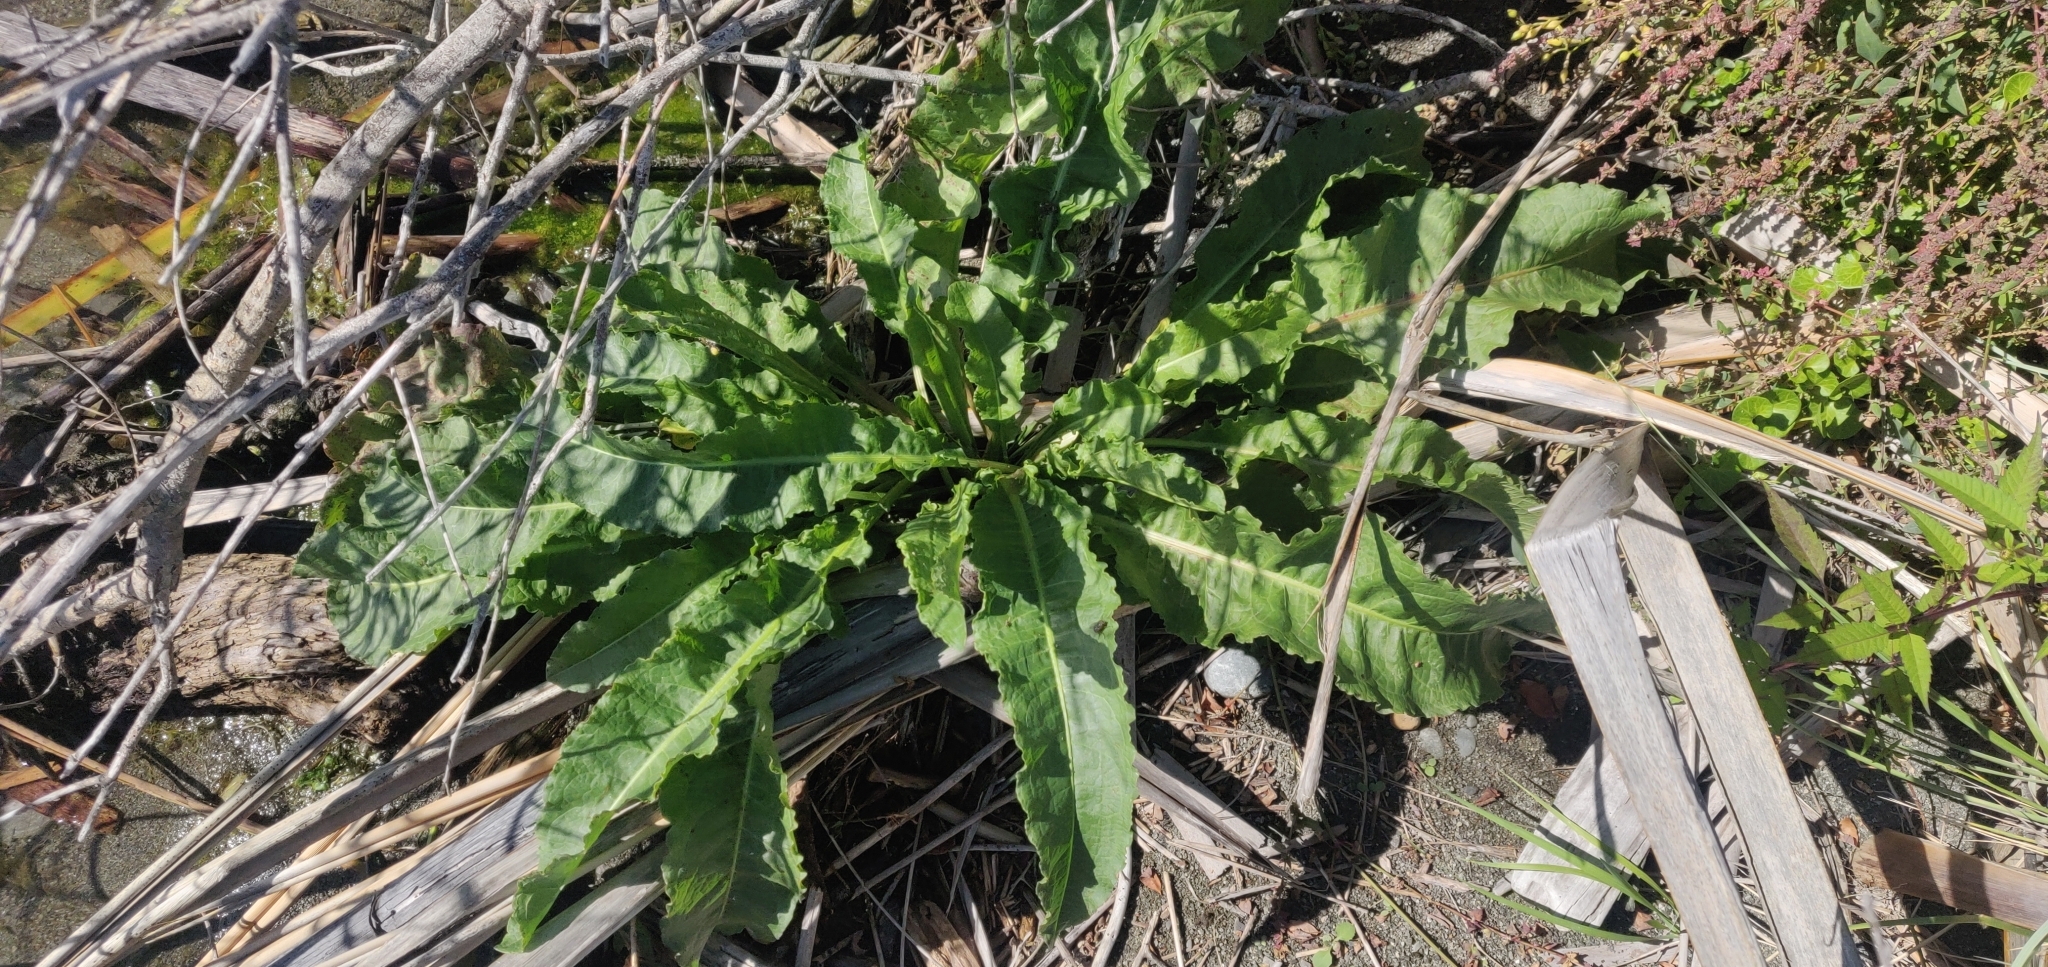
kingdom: Plantae
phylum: Tracheophyta
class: Magnoliopsida
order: Caryophyllales
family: Polygonaceae
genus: Rumex
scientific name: Rumex crispus
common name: Curled dock
